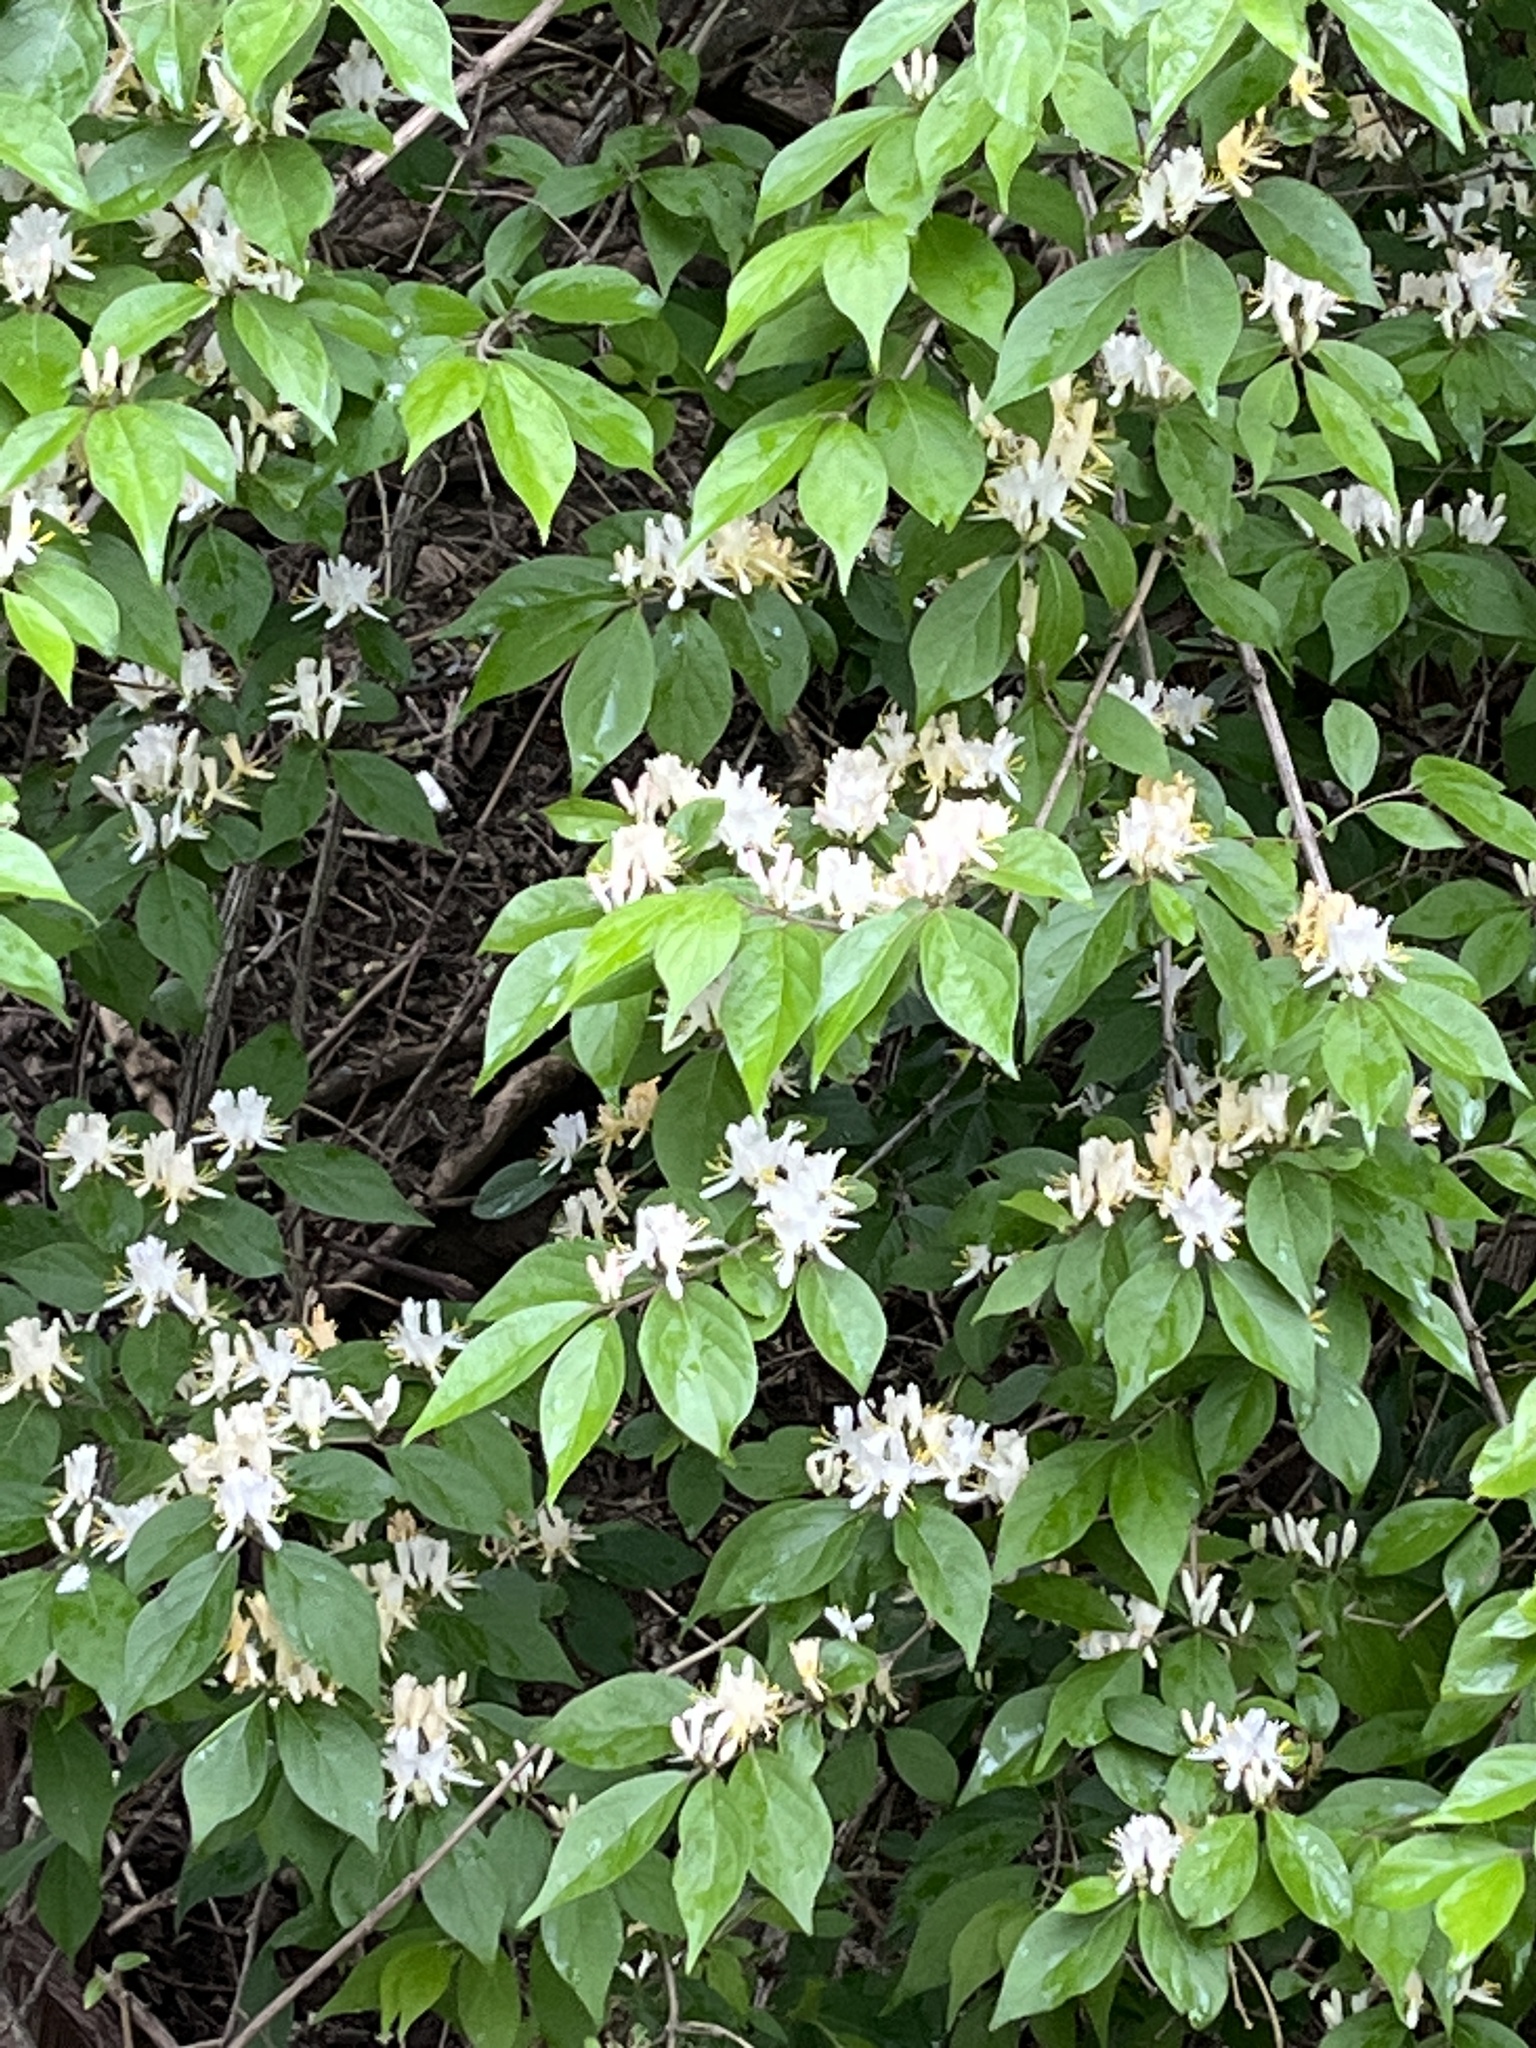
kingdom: Plantae
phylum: Tracheophyta
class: Magnoliopsida
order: Dipsacales
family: Caprifoliaceae
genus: Lonicera
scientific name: Lonicera maackii
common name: Amur honeysuckle
